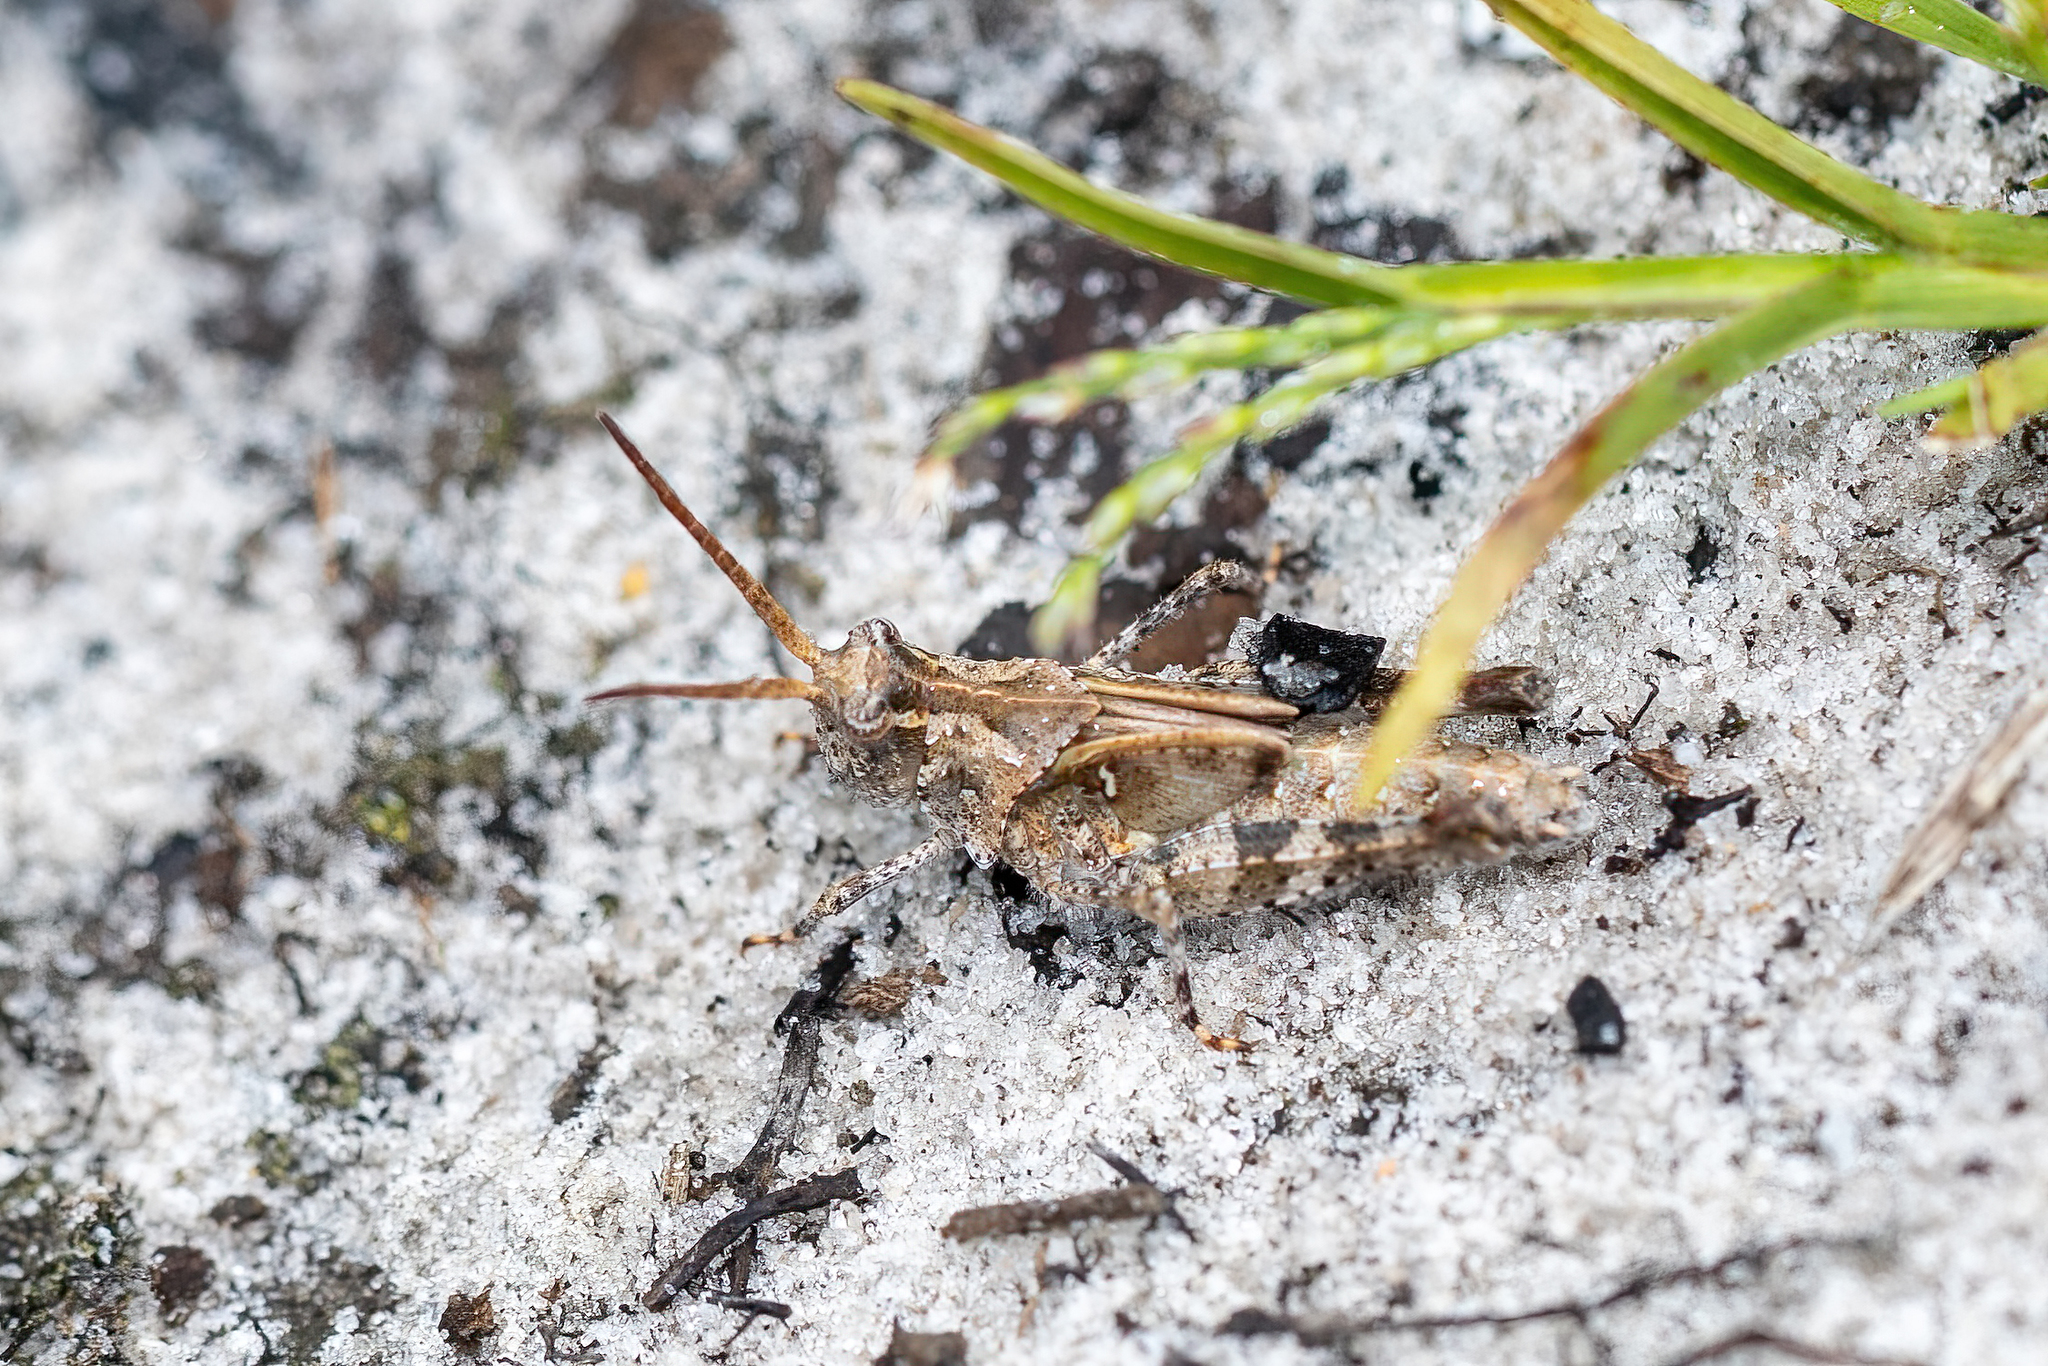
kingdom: Animalia
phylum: Arthropoda
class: Insecta
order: Orthoptera
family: Acrididae
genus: Psinidia
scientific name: Psinidia fenestralis
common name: Long-horned locust
